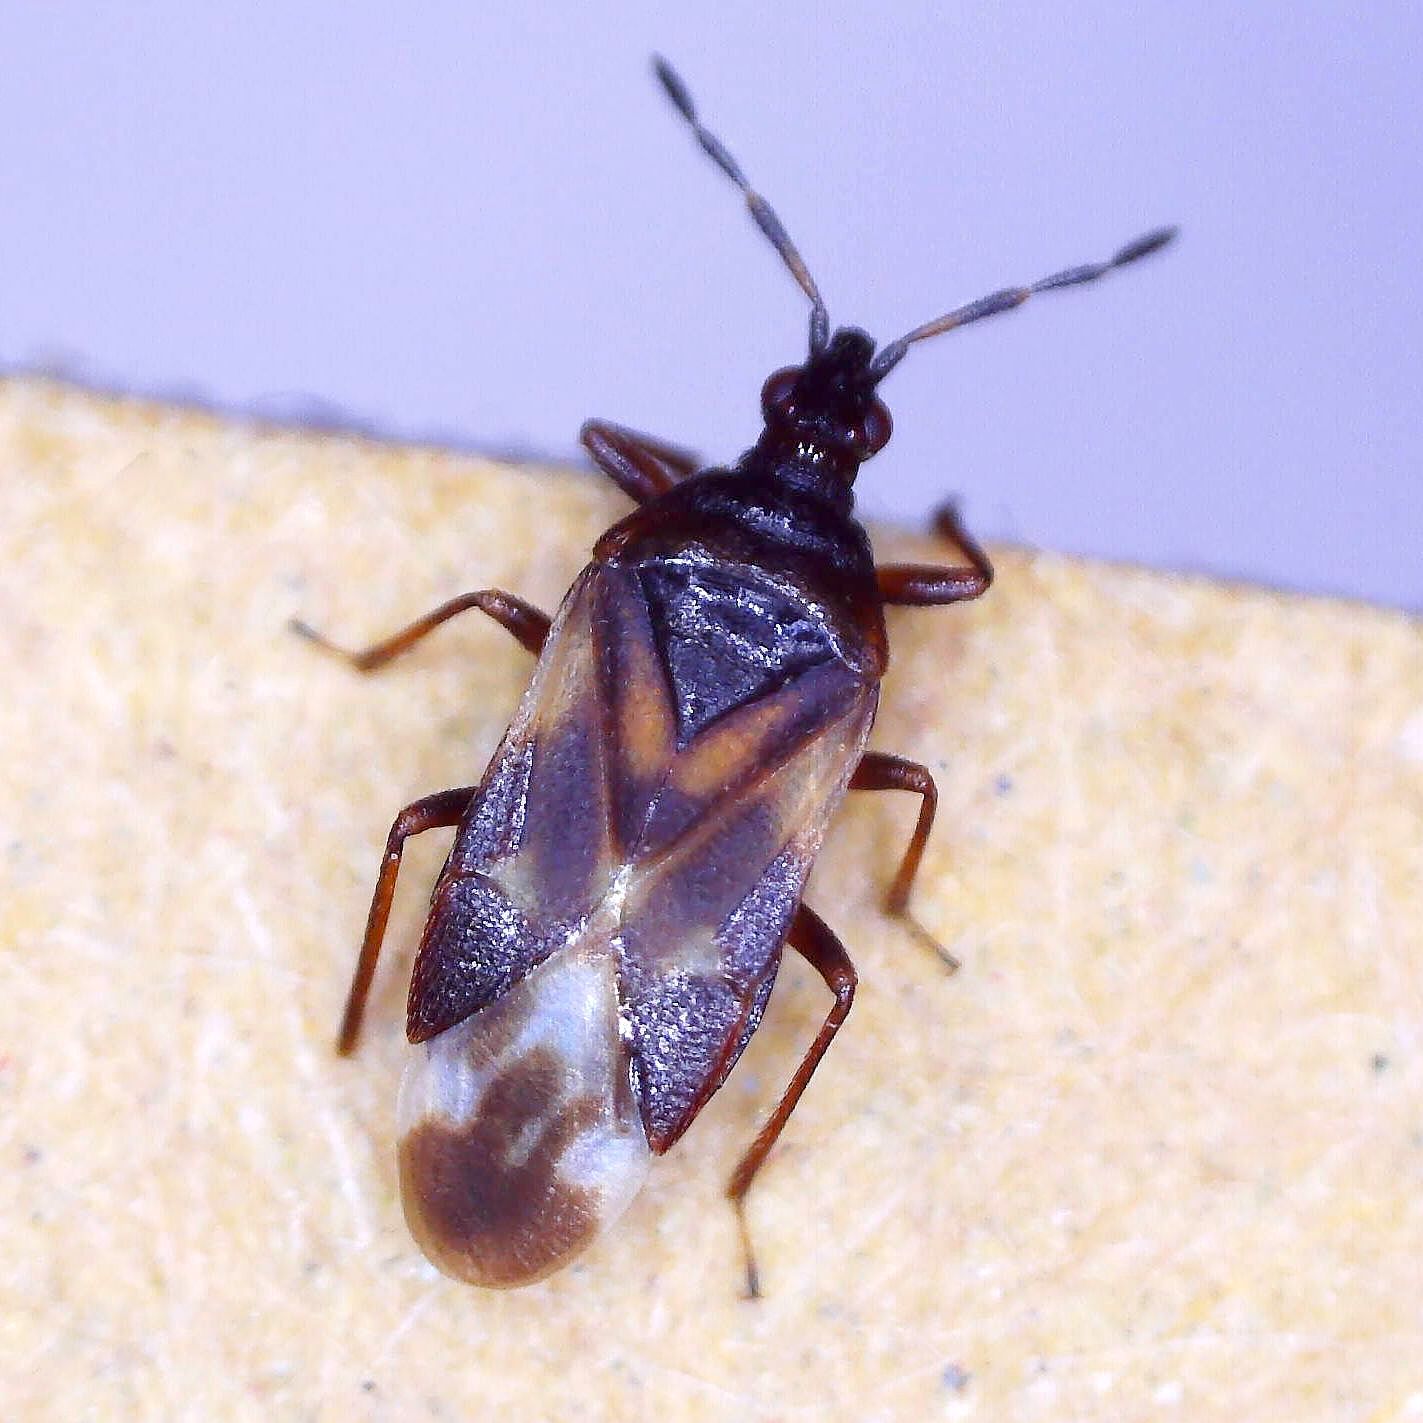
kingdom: Animalia
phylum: Arthropoda
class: Insecta
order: Hemiptera
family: Anthocoridae
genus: Anthocoris
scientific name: Anthocoris nemoralis
